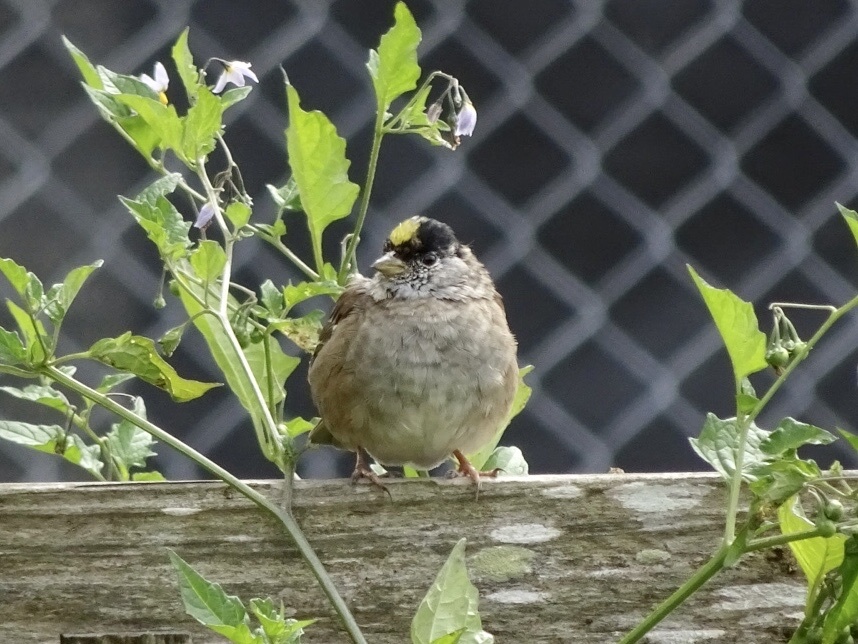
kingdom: Animalia
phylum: Chordata
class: Aves
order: Passeriformes
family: Passerellidae
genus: Zonotrichia
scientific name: Zonotrichia atricapilla
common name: Golden-crowned sparrow
